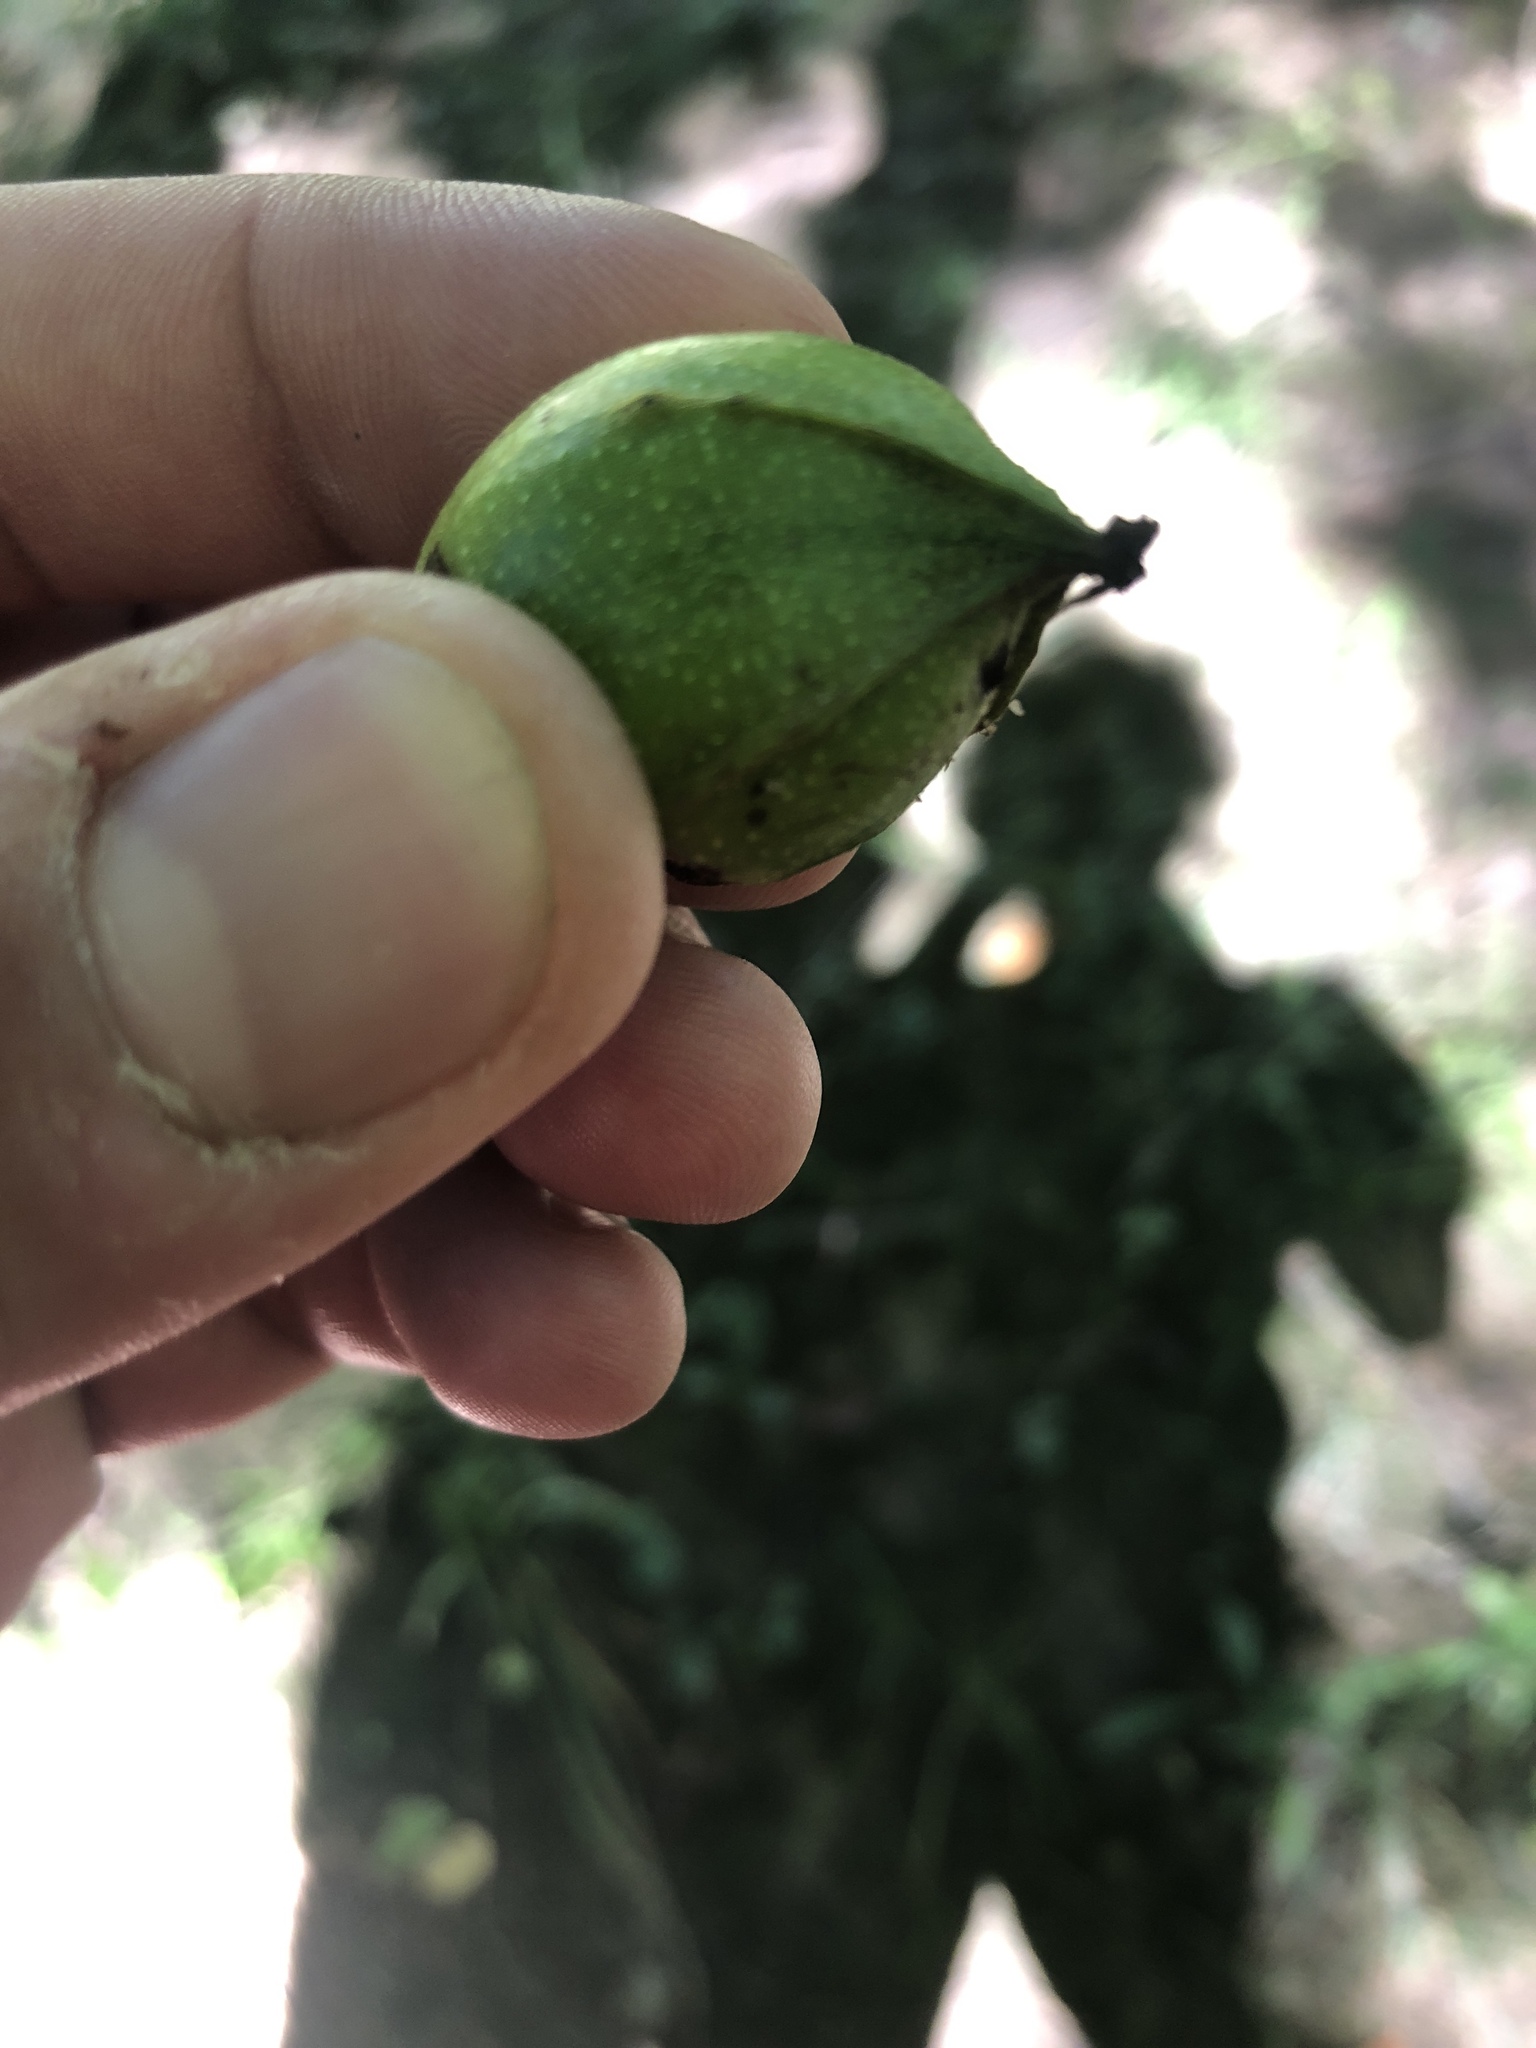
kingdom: Plantae
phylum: Tracheophyta
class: Magnoliopsida
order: Fagales
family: Juglandaceae
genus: Carya
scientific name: Carya cordiformis
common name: Bitternut hickory
